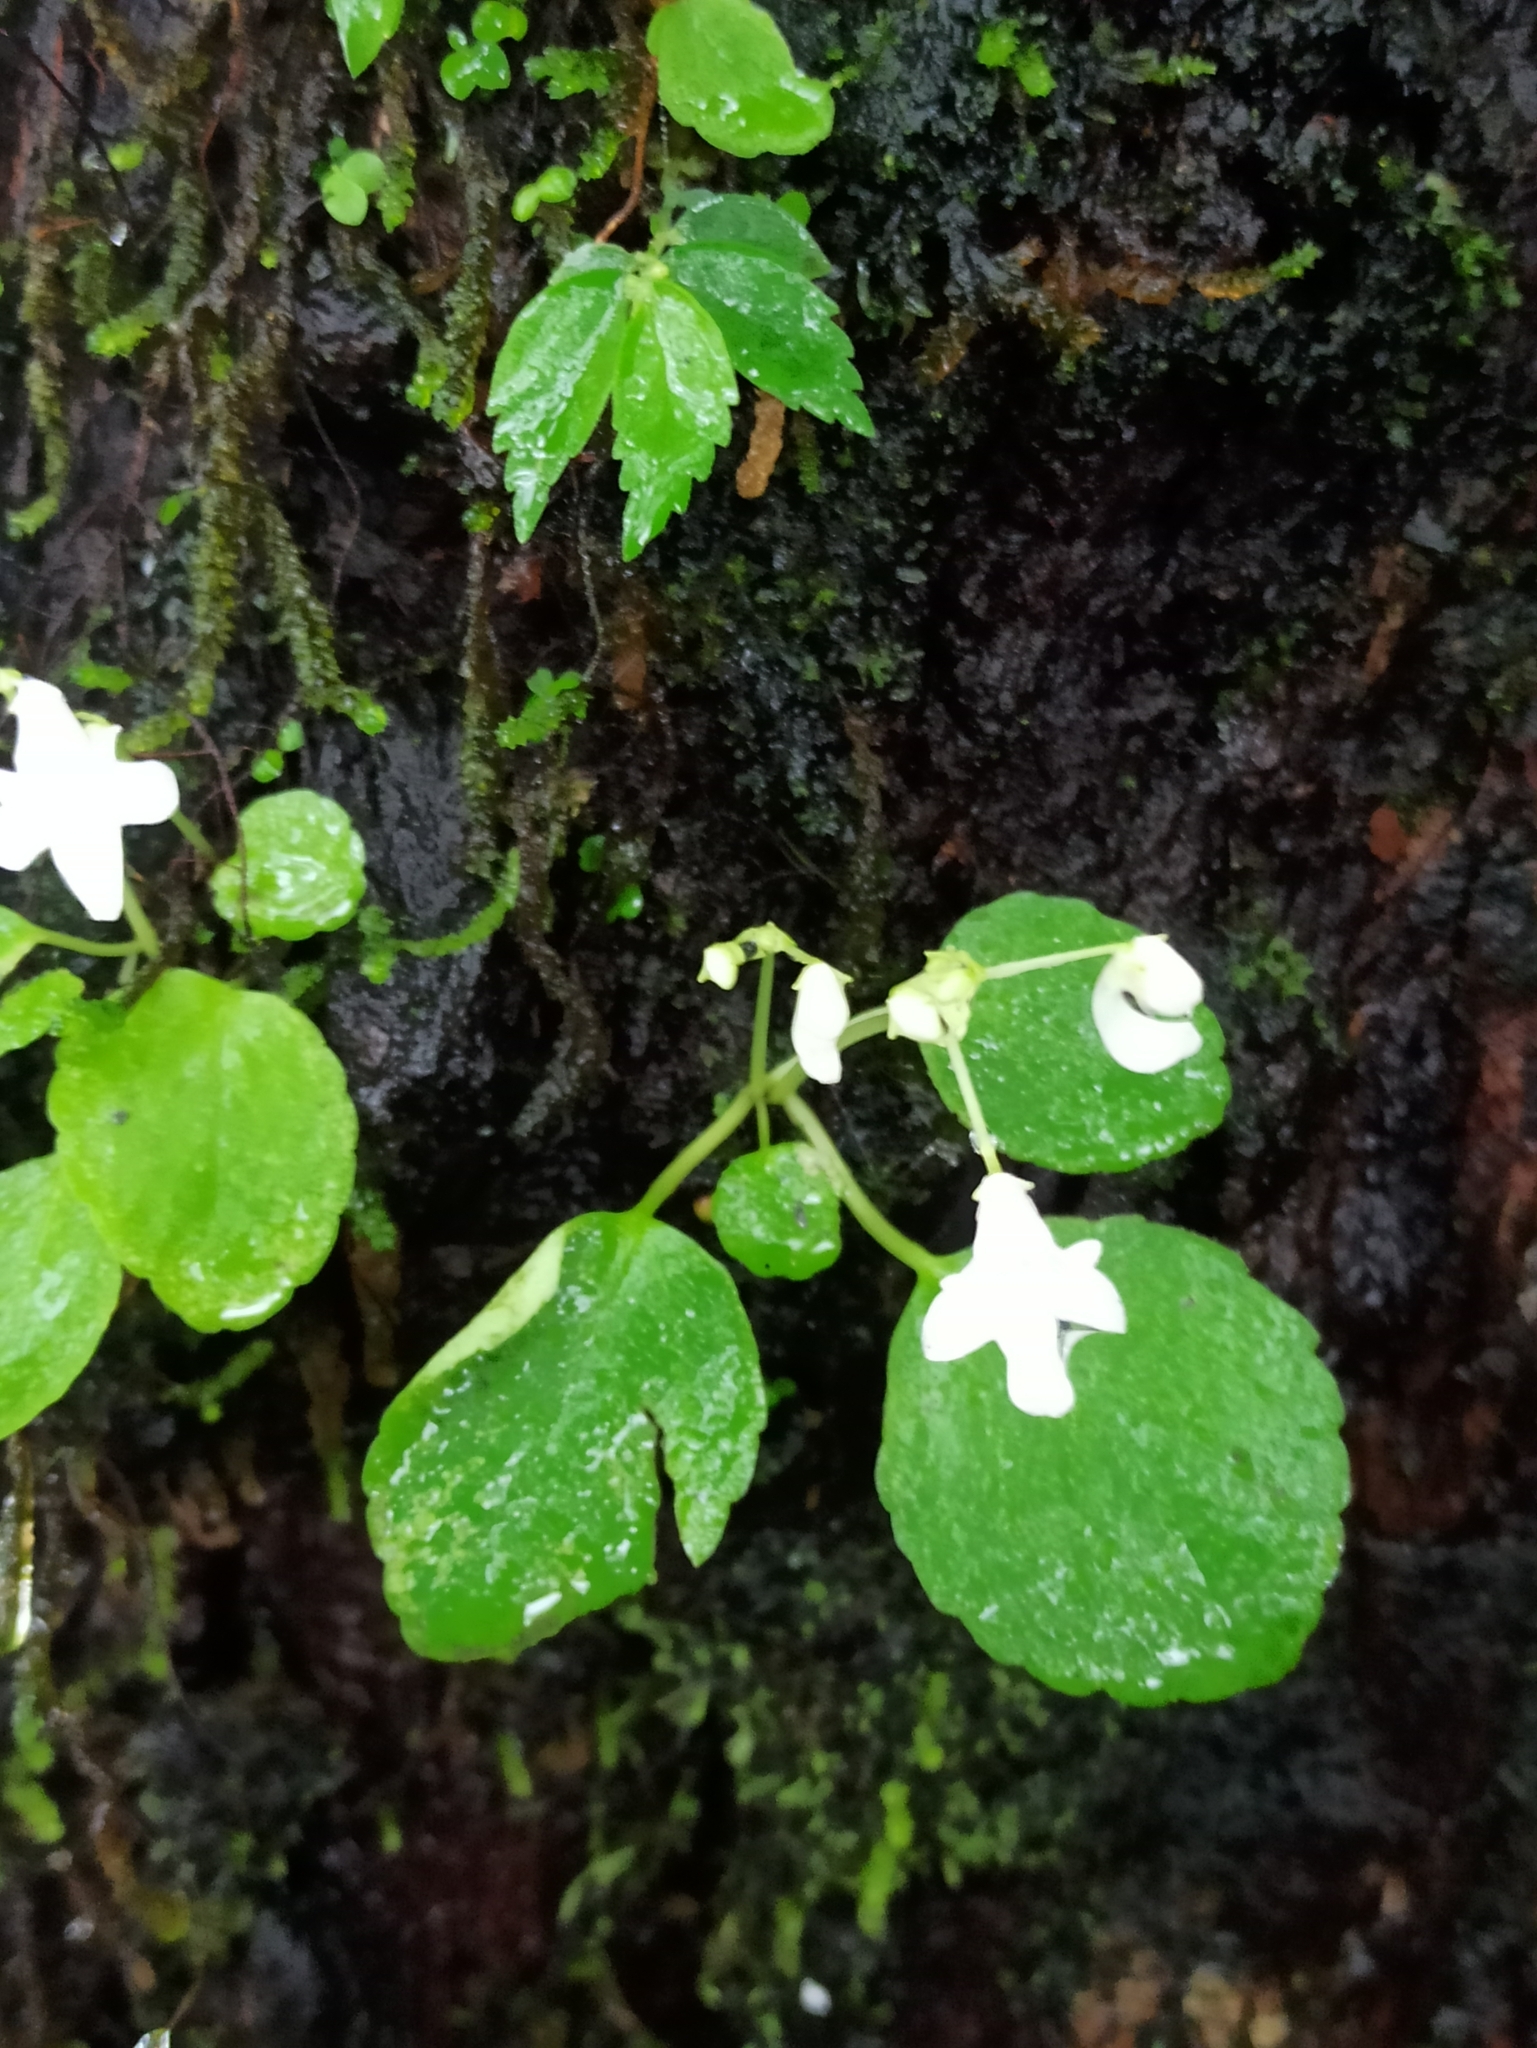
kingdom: Plantae
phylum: Tracheophyta
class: Magnoliopsida
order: Ericales
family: Balsaminaceae
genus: Impatiens
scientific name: Impatiens dendricola
